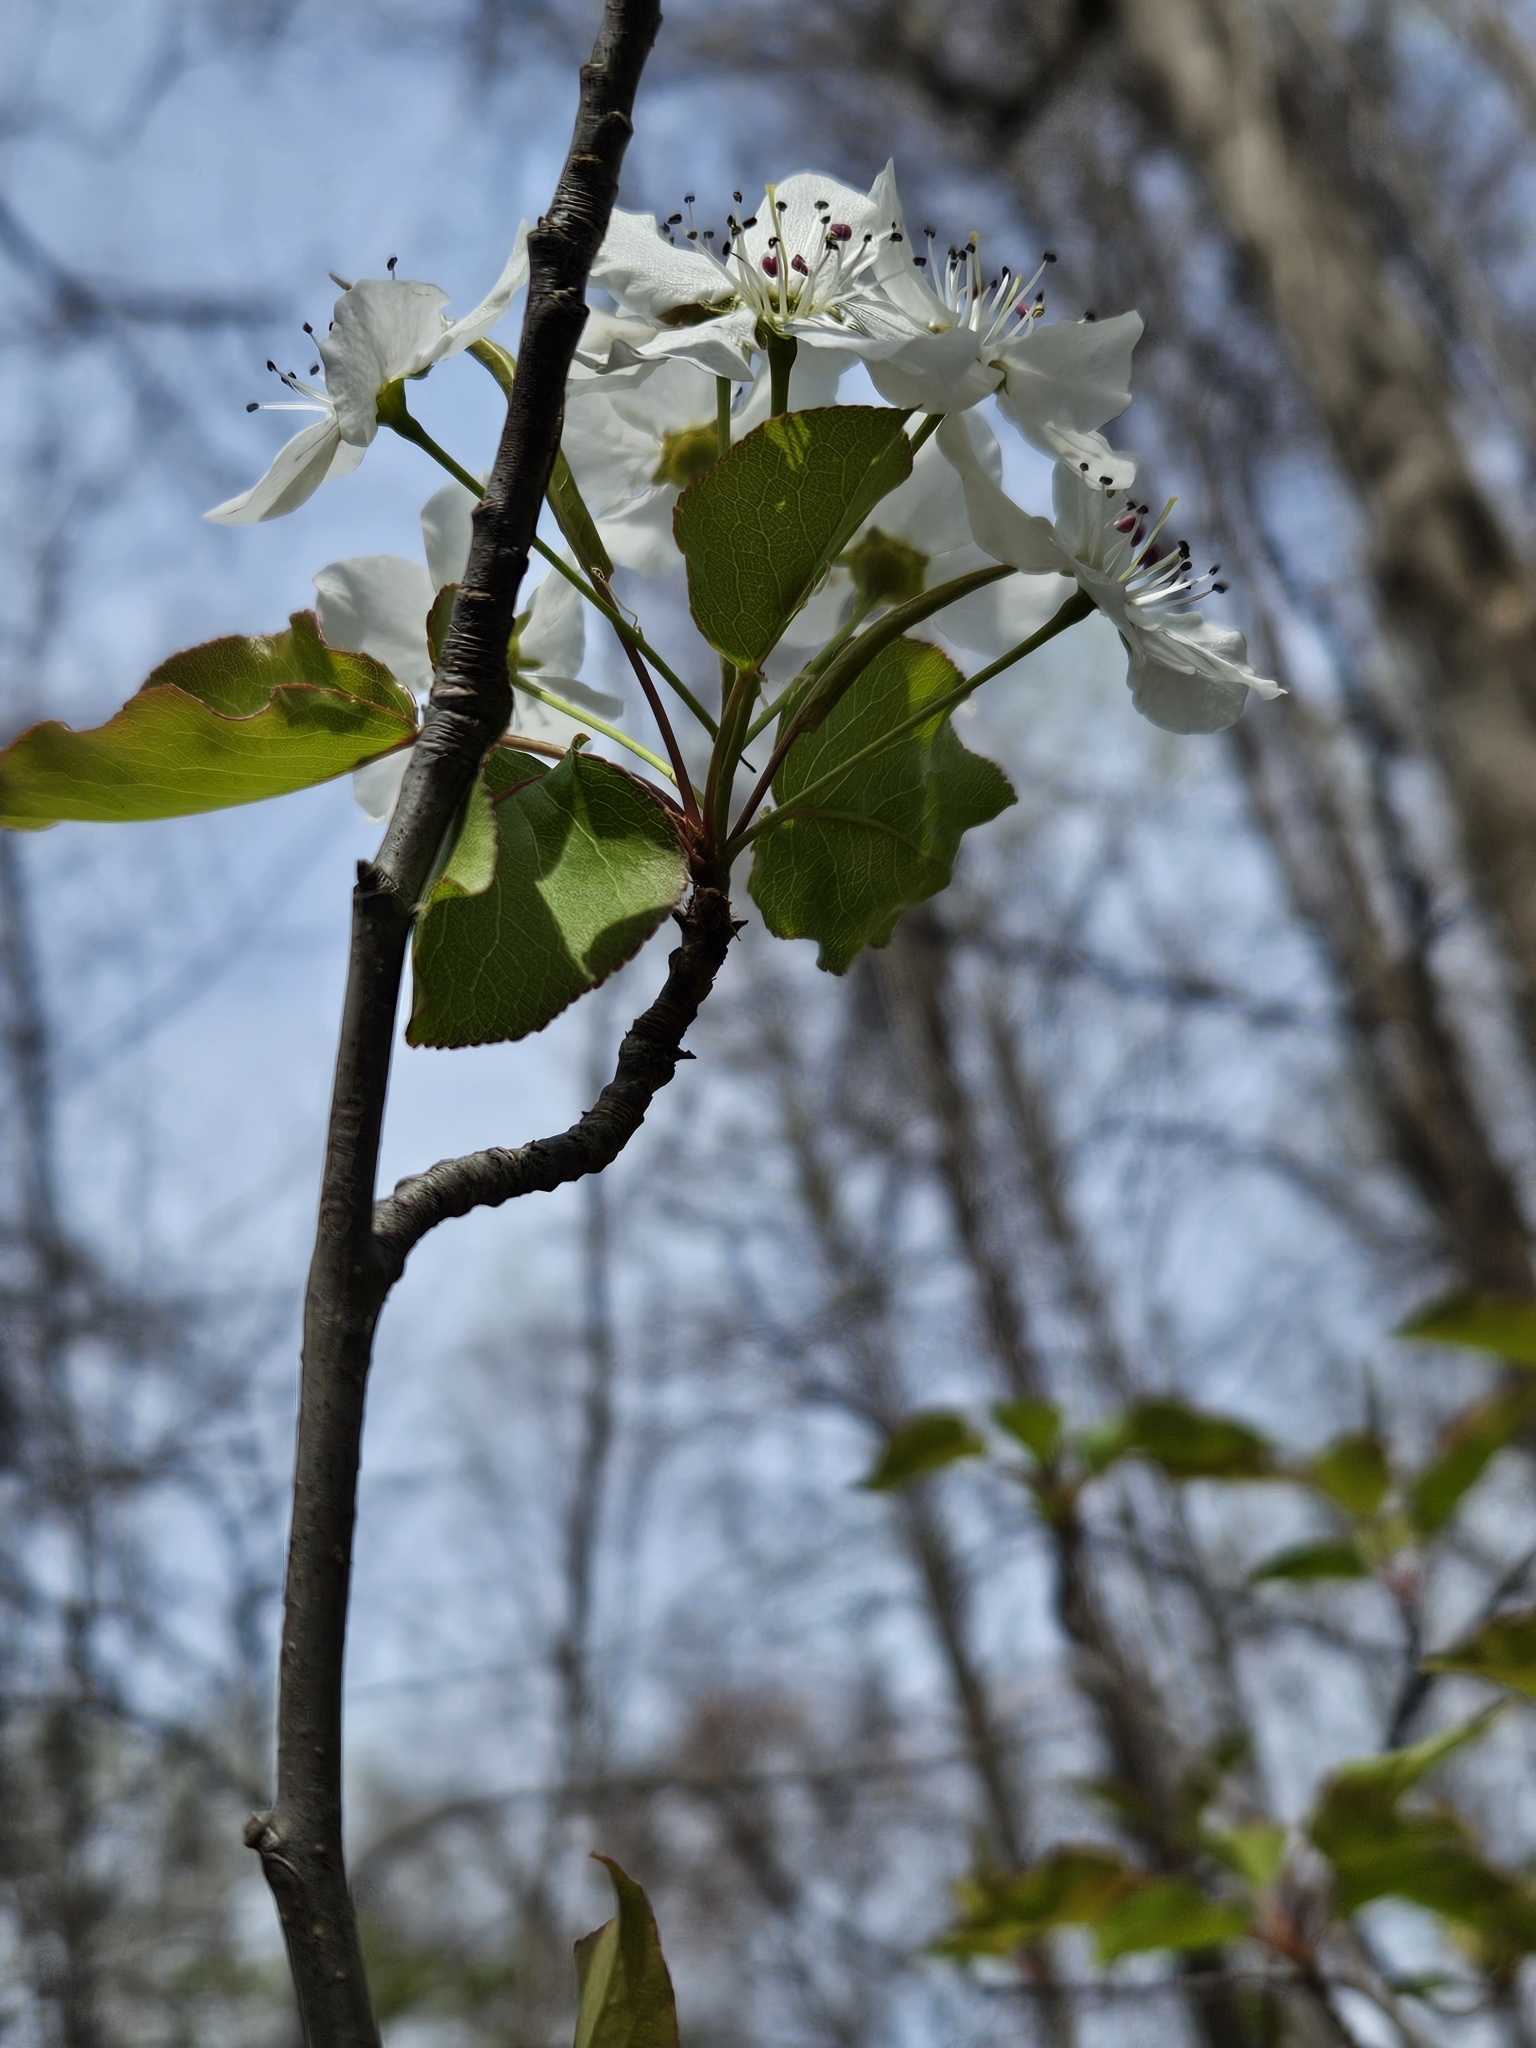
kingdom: Plantae
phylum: Tracheophyta
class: Magnoliopsida
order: Rosales
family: Rosaceae
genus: Pyrus
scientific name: Pyrus calleryana
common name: Callery pear
